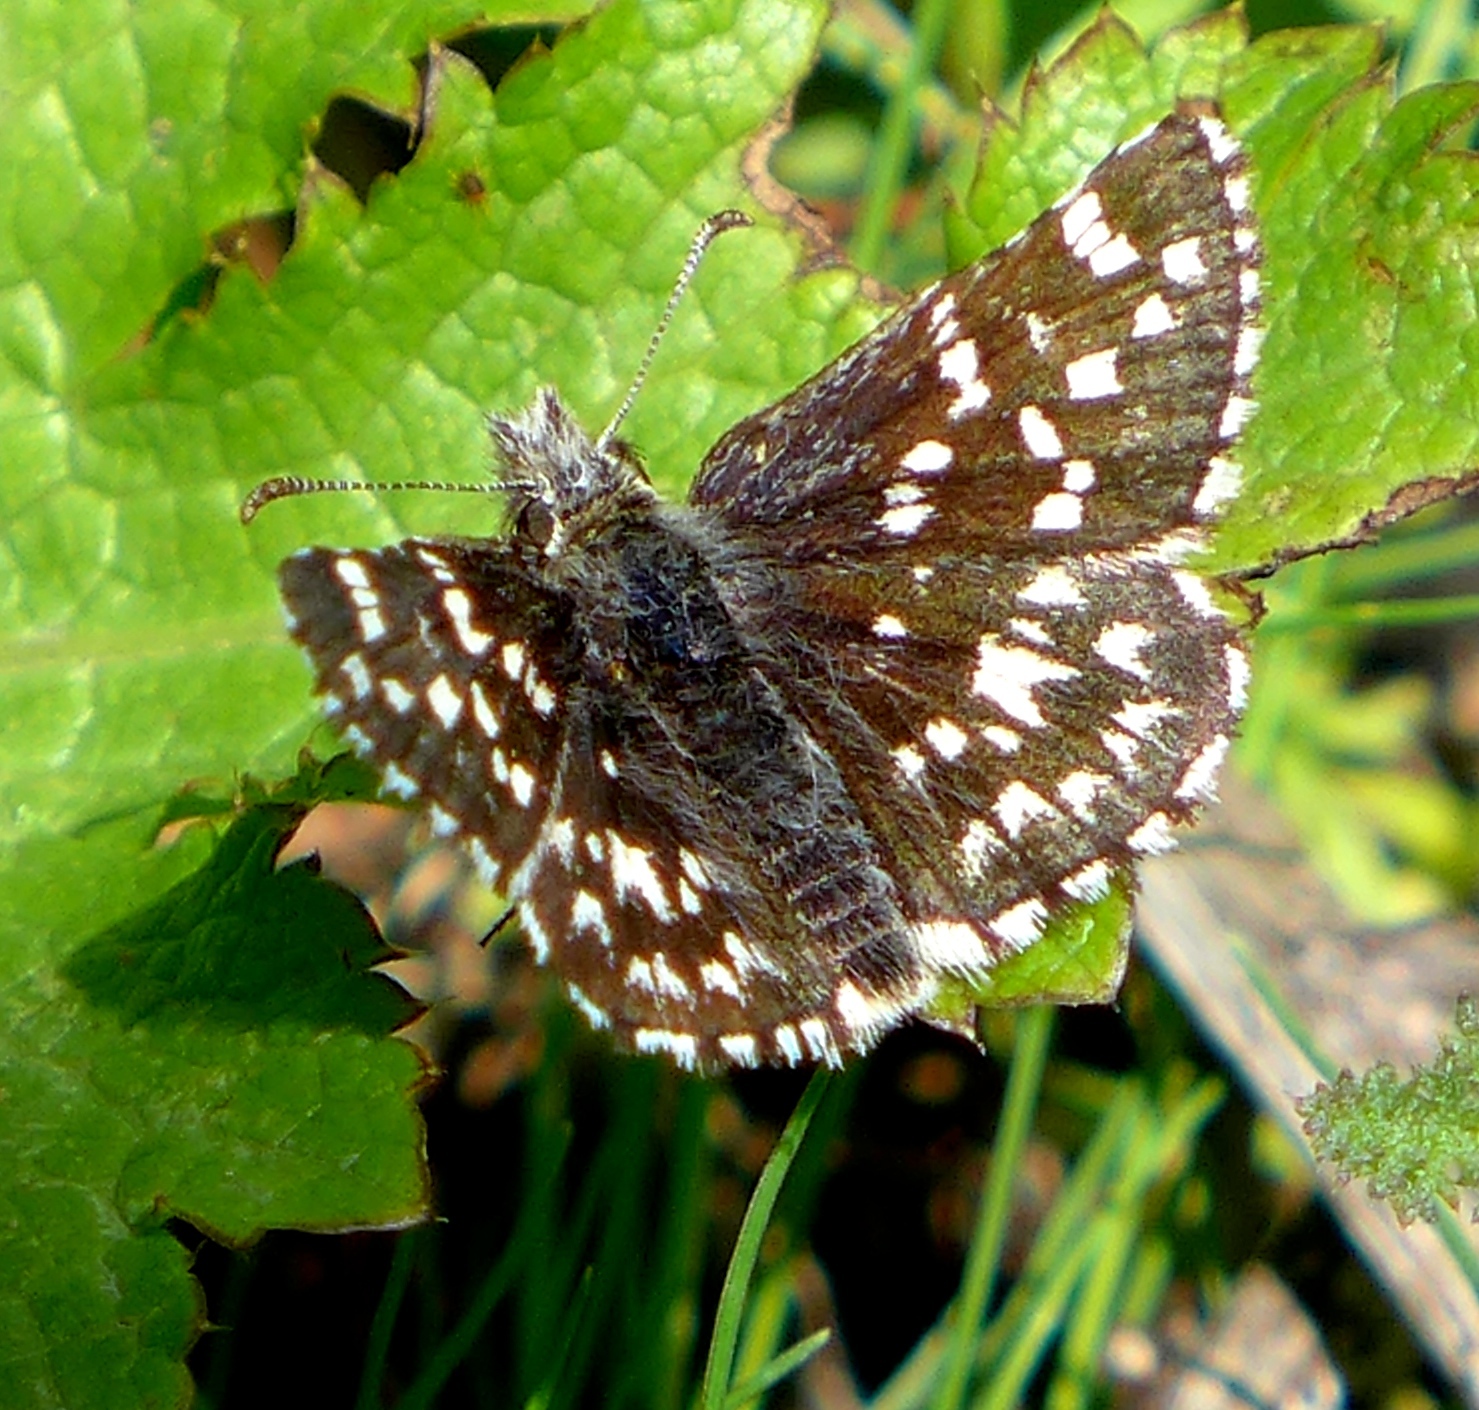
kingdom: Animalia
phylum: Arthropoda
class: Insecta
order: Lepidoptera
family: Hesperiidae
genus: Pyrgus
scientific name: Pyrgus ruralis
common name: Two-banded checkered-skipper
